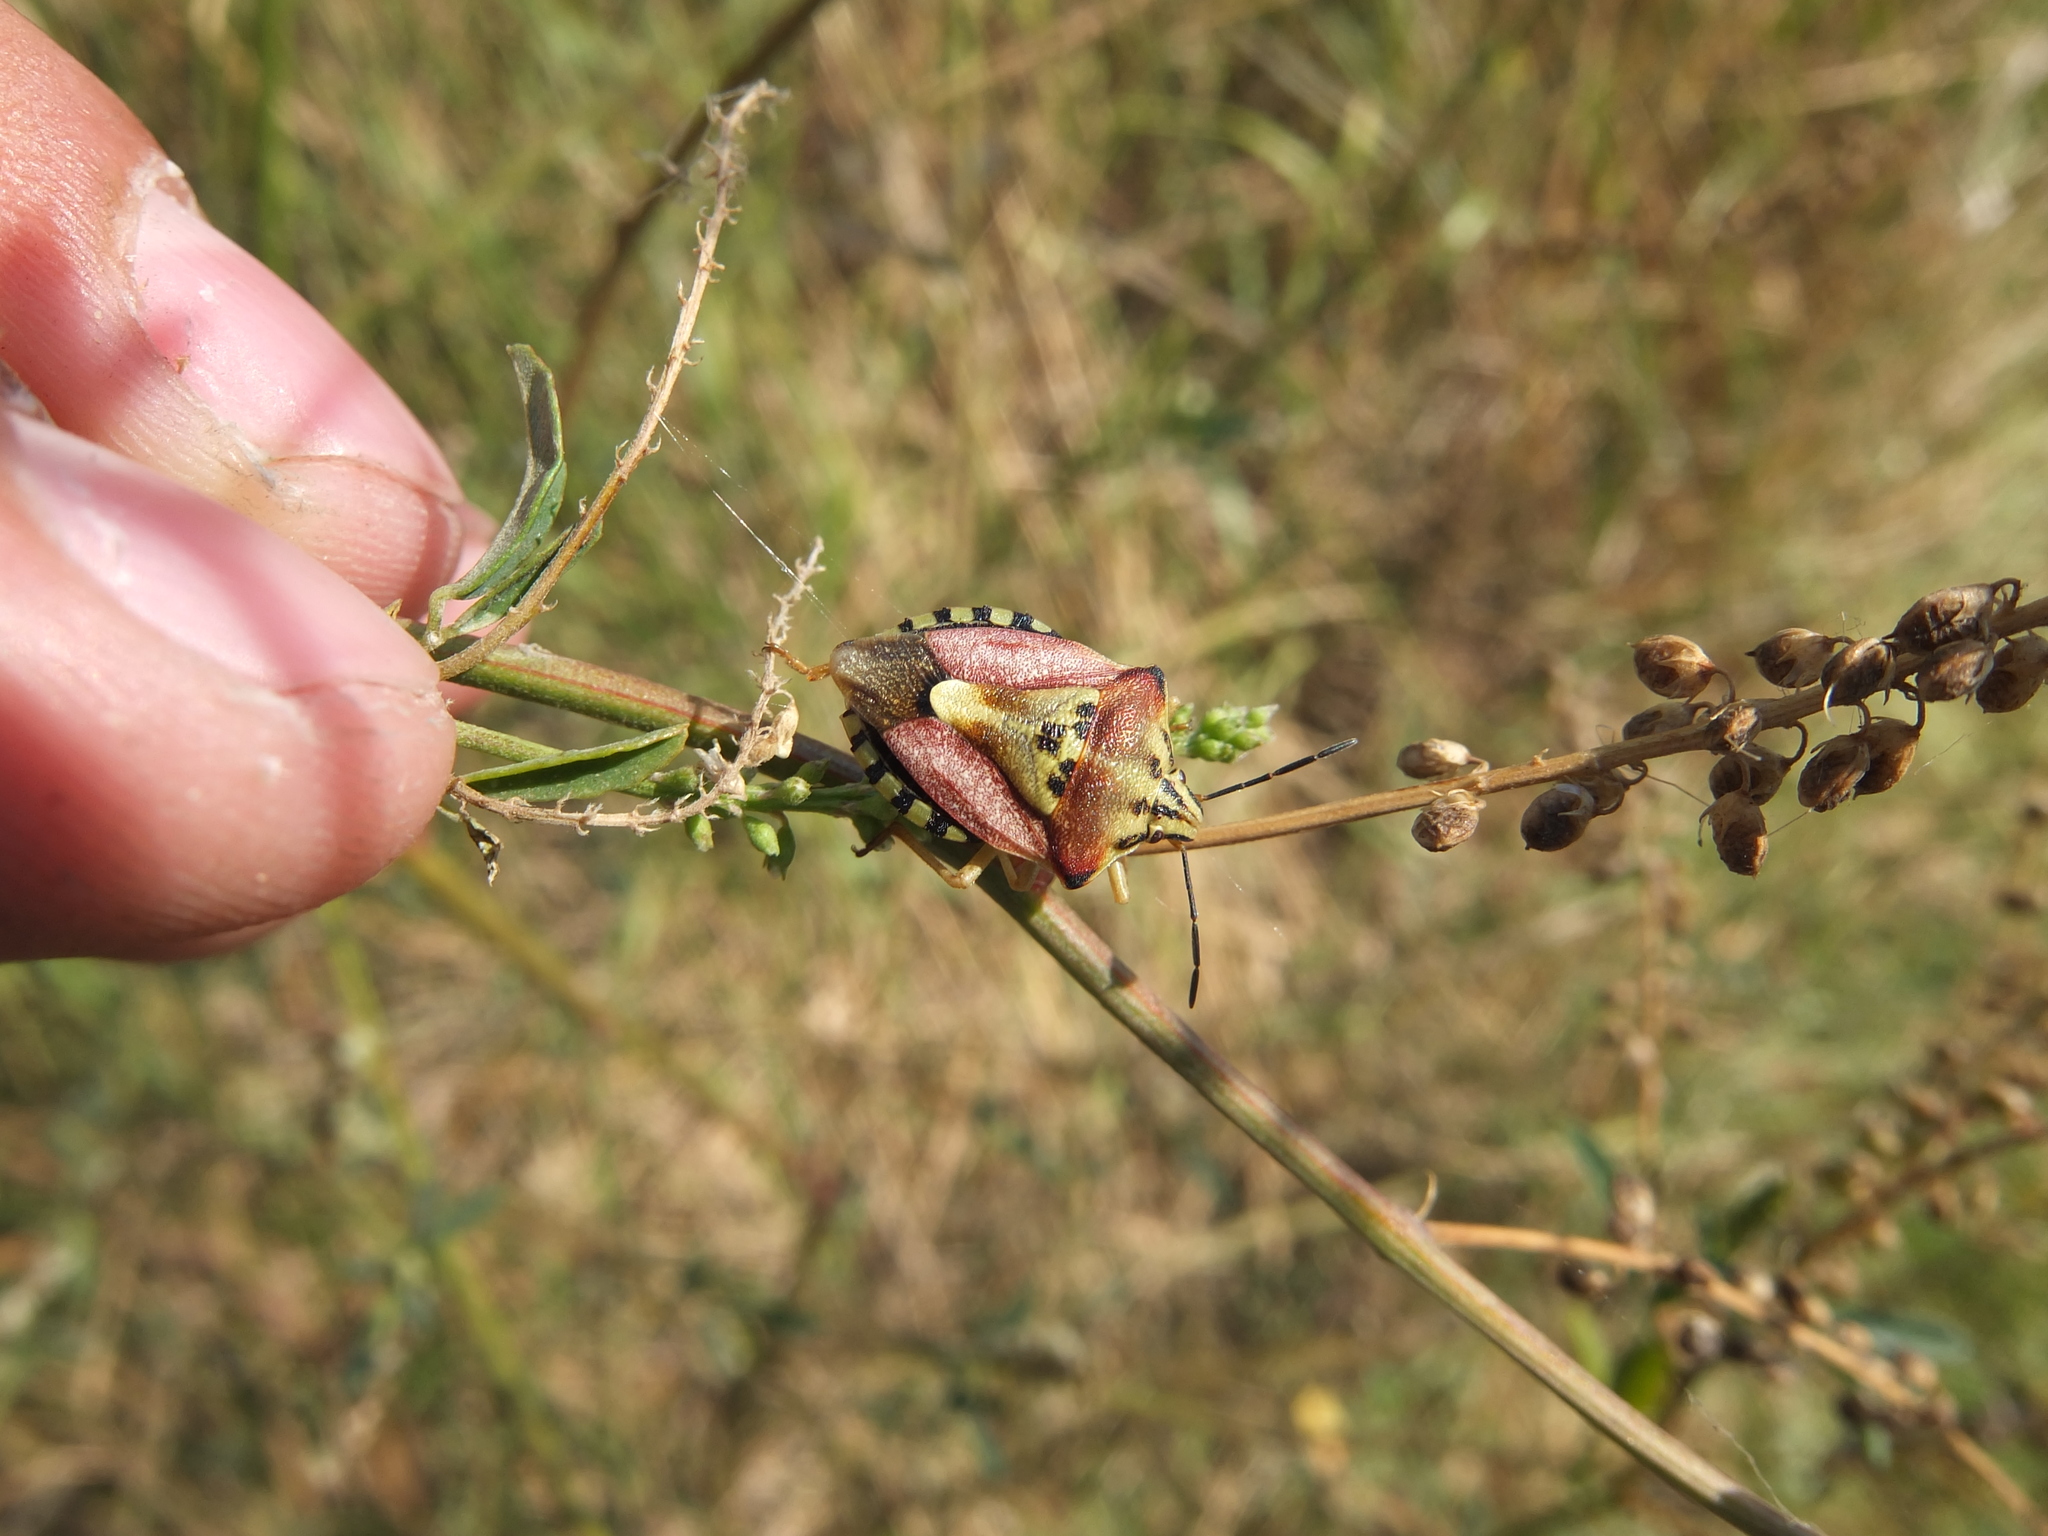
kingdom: Animalia
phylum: Arthropoda
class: Insecta
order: Hemiptera
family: Pentatomidae
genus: Carpocoris
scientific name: Carpocoris mediterraneus
